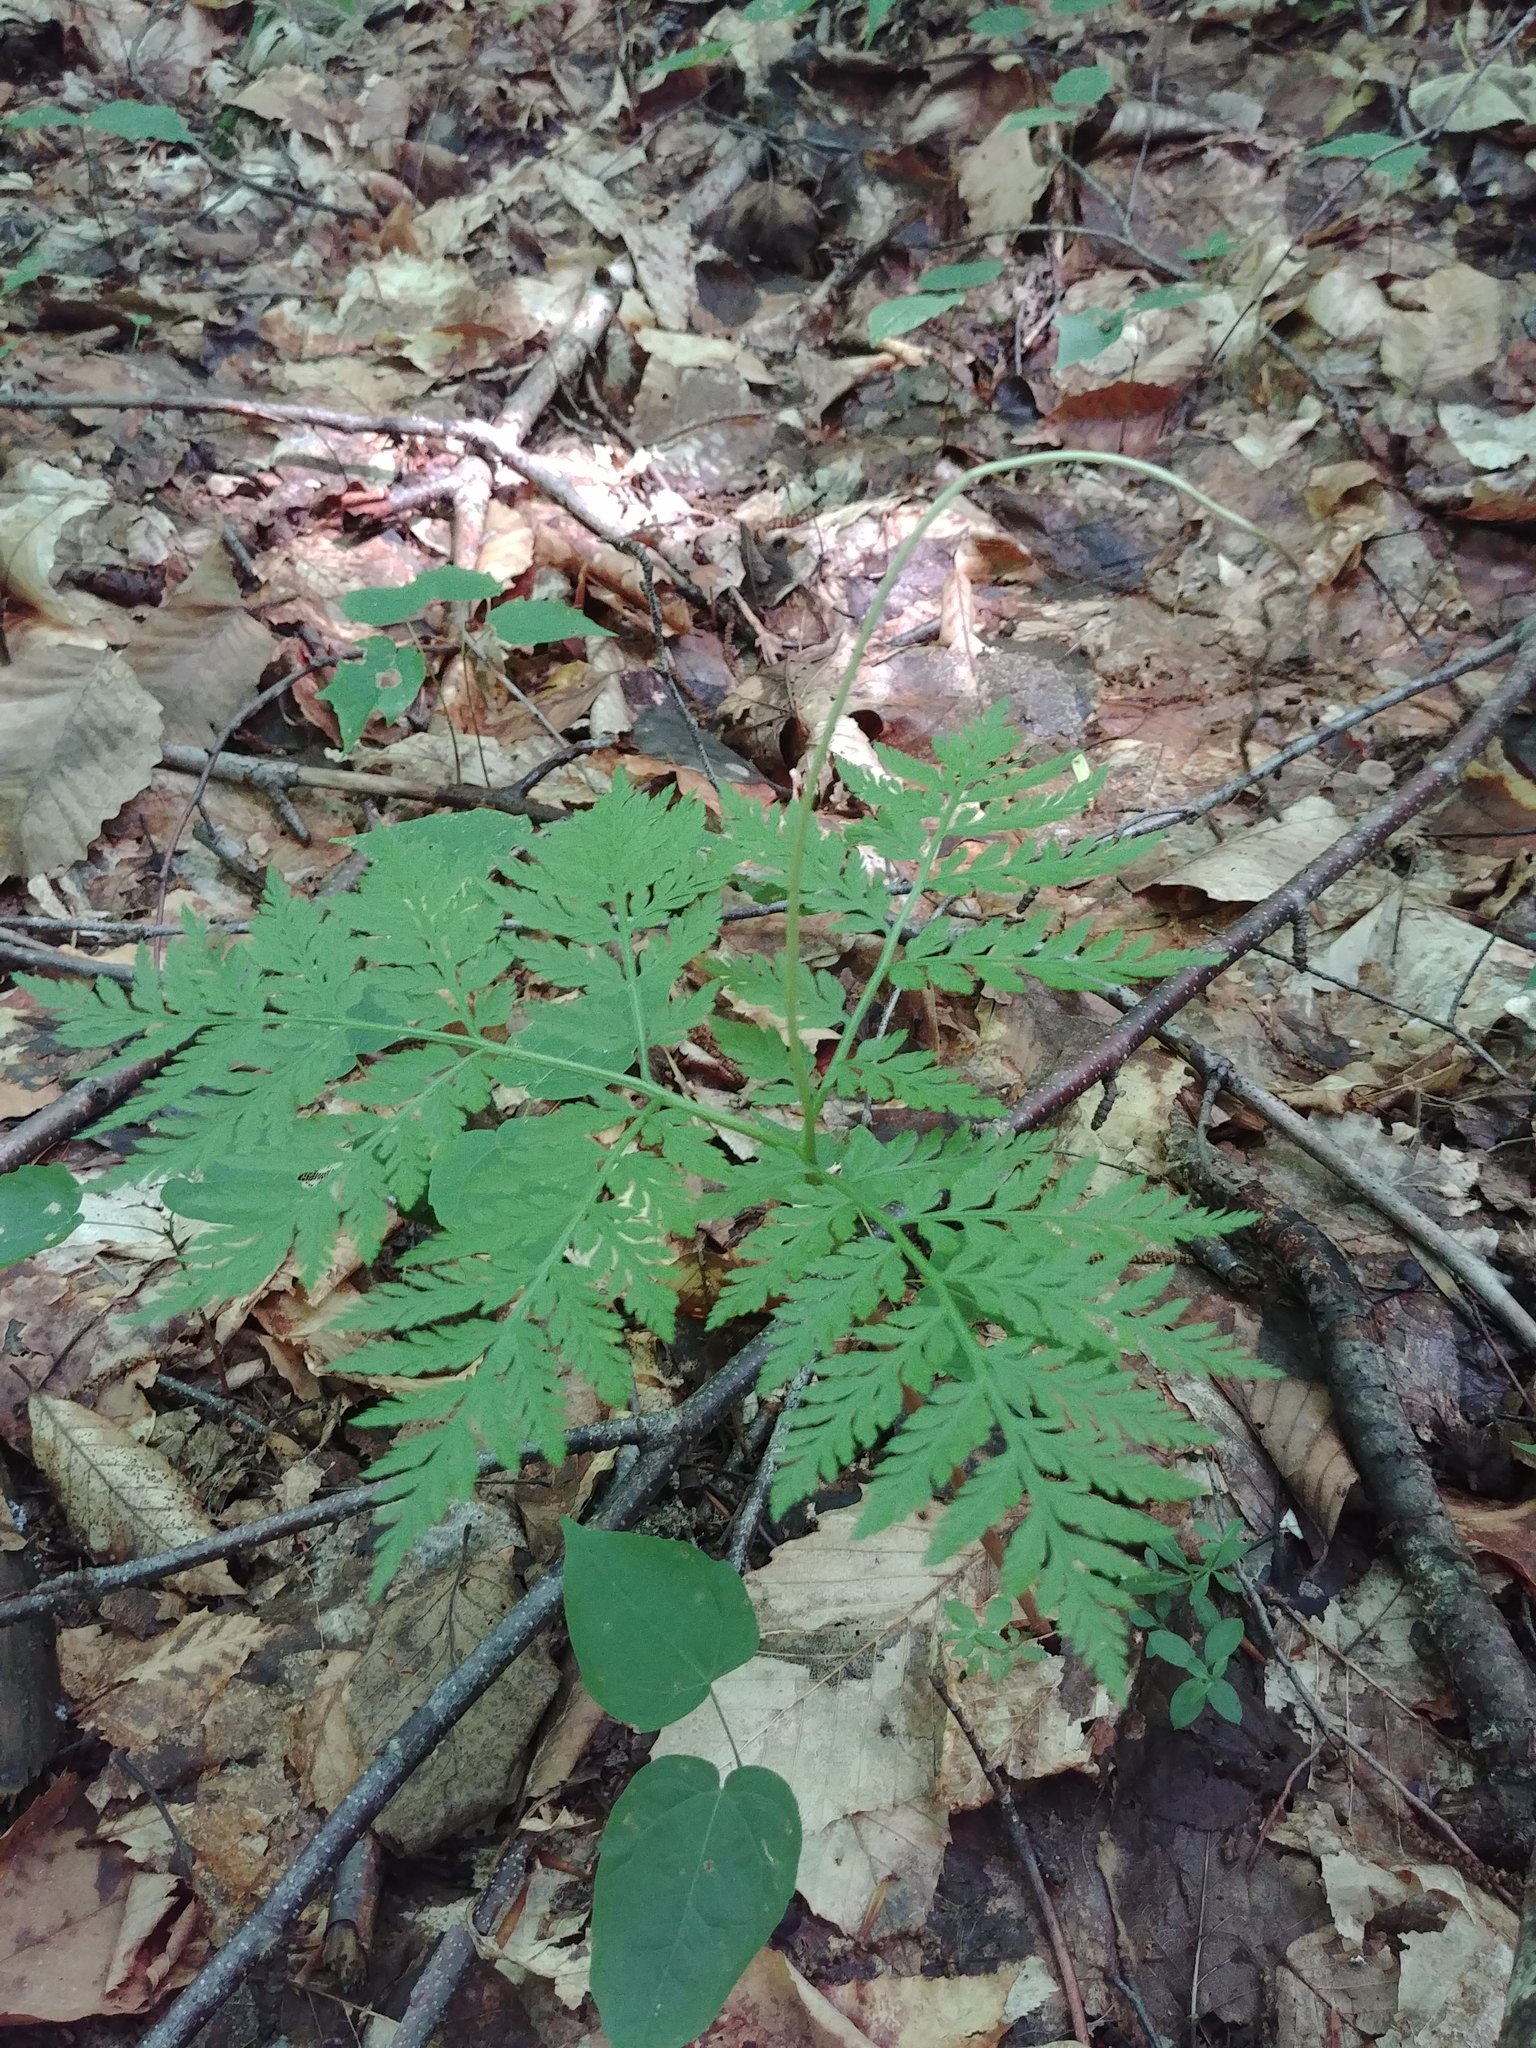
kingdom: Plantae
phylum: Tracheophyta
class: Polypodiopsida
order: Ophioglossales
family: Ophioglossaceae
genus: Botrypus
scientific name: Botrypus virginianus
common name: Common grapefern
